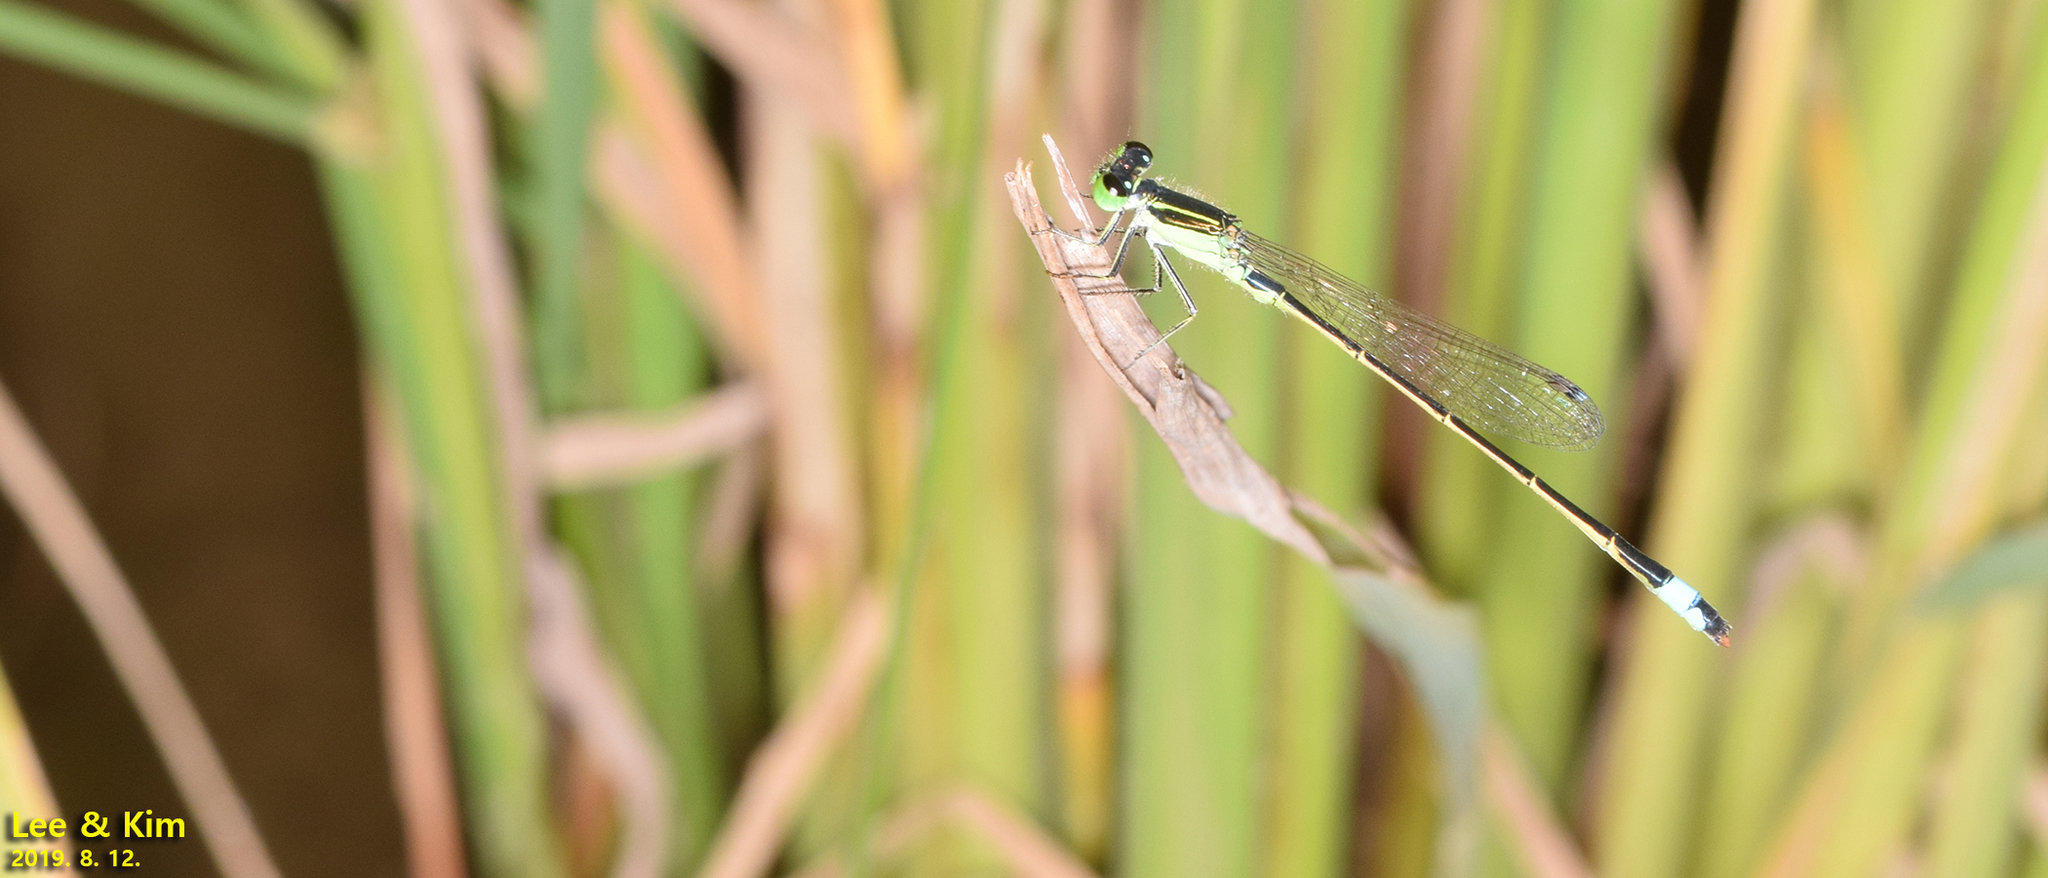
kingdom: Animalia
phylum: Arthropoda
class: Insecta
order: Odonata
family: Coenagrionidae
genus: Ischnura
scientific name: Ischnura senegalensis
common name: Tropical bluetail
